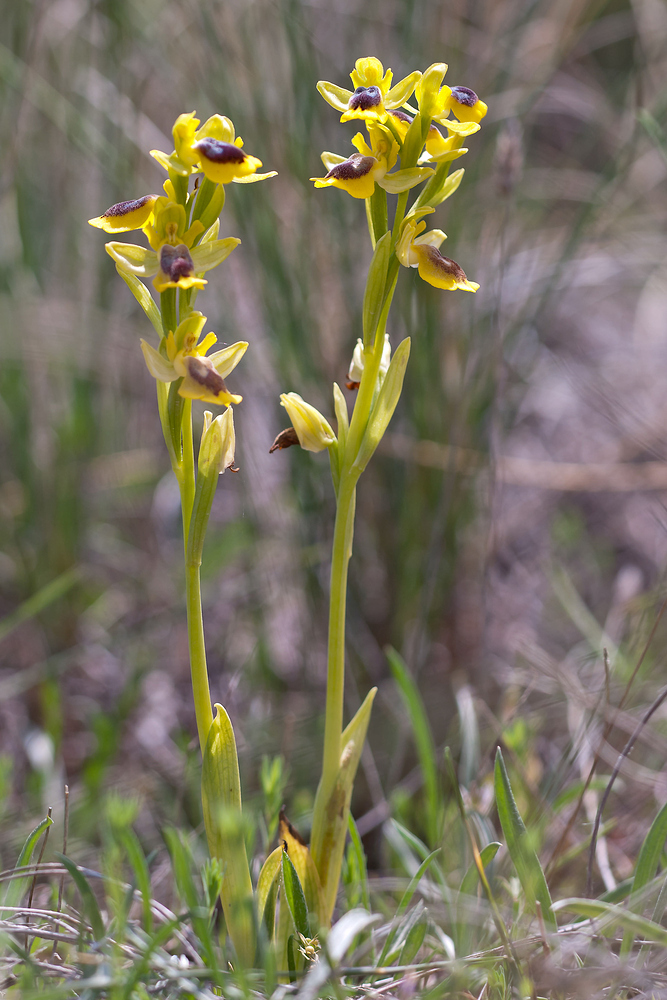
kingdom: Plantae
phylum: Tracheophyta
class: Liliopsida
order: Asparagales
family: Orchidaceae
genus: Ophrys
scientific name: Ophrys lutea
